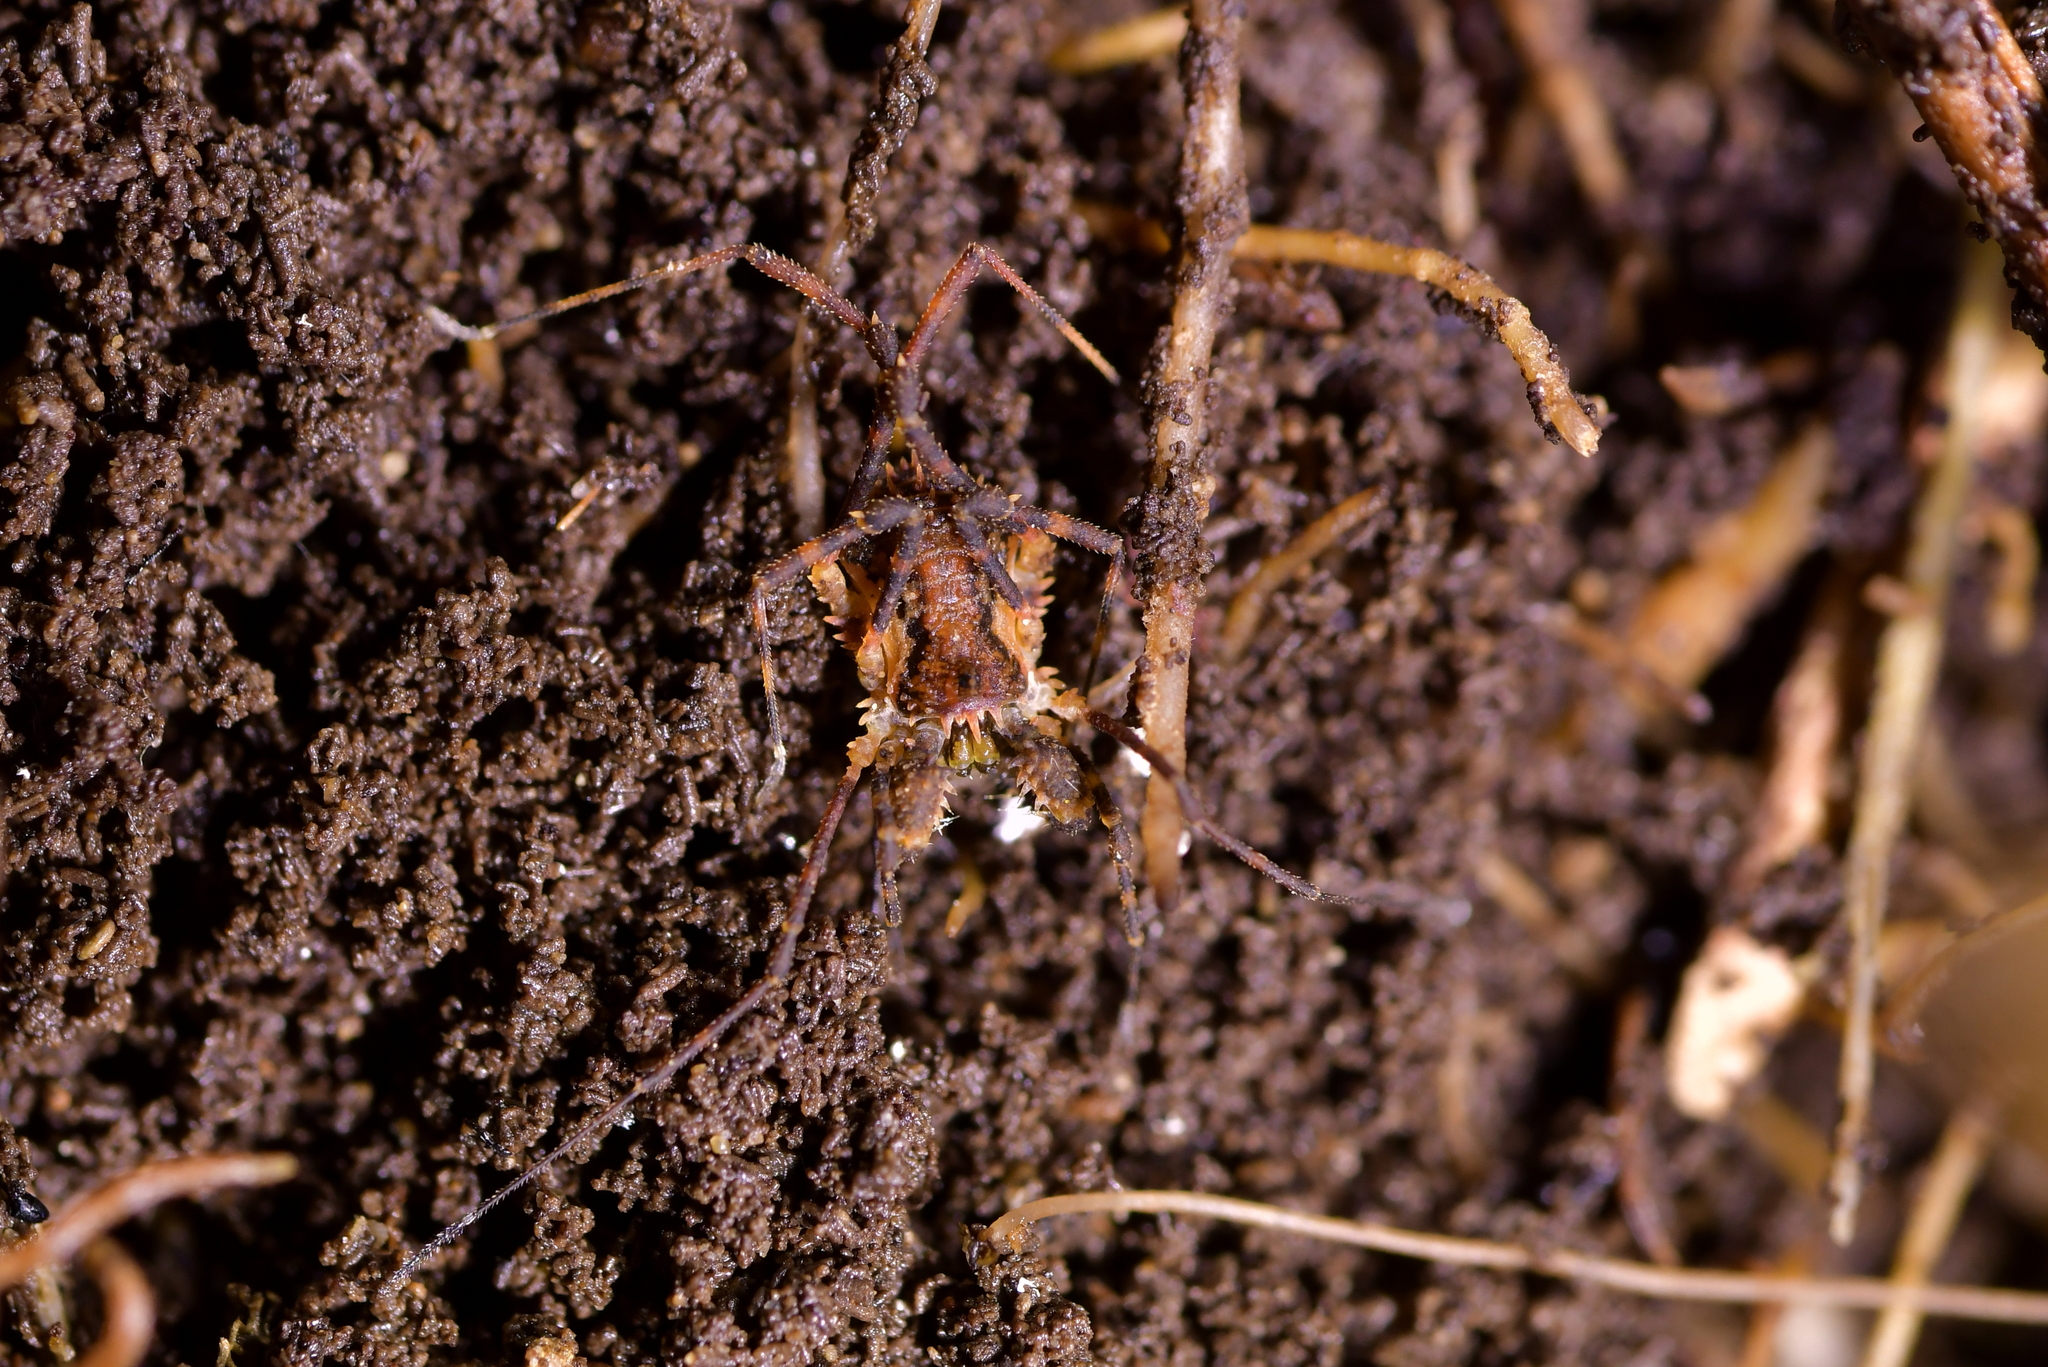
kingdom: Animalia
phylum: Arthropoda
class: Arachnida
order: Opiliones
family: Triaenonychidae
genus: Algidia
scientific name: Algidia nigriflava
